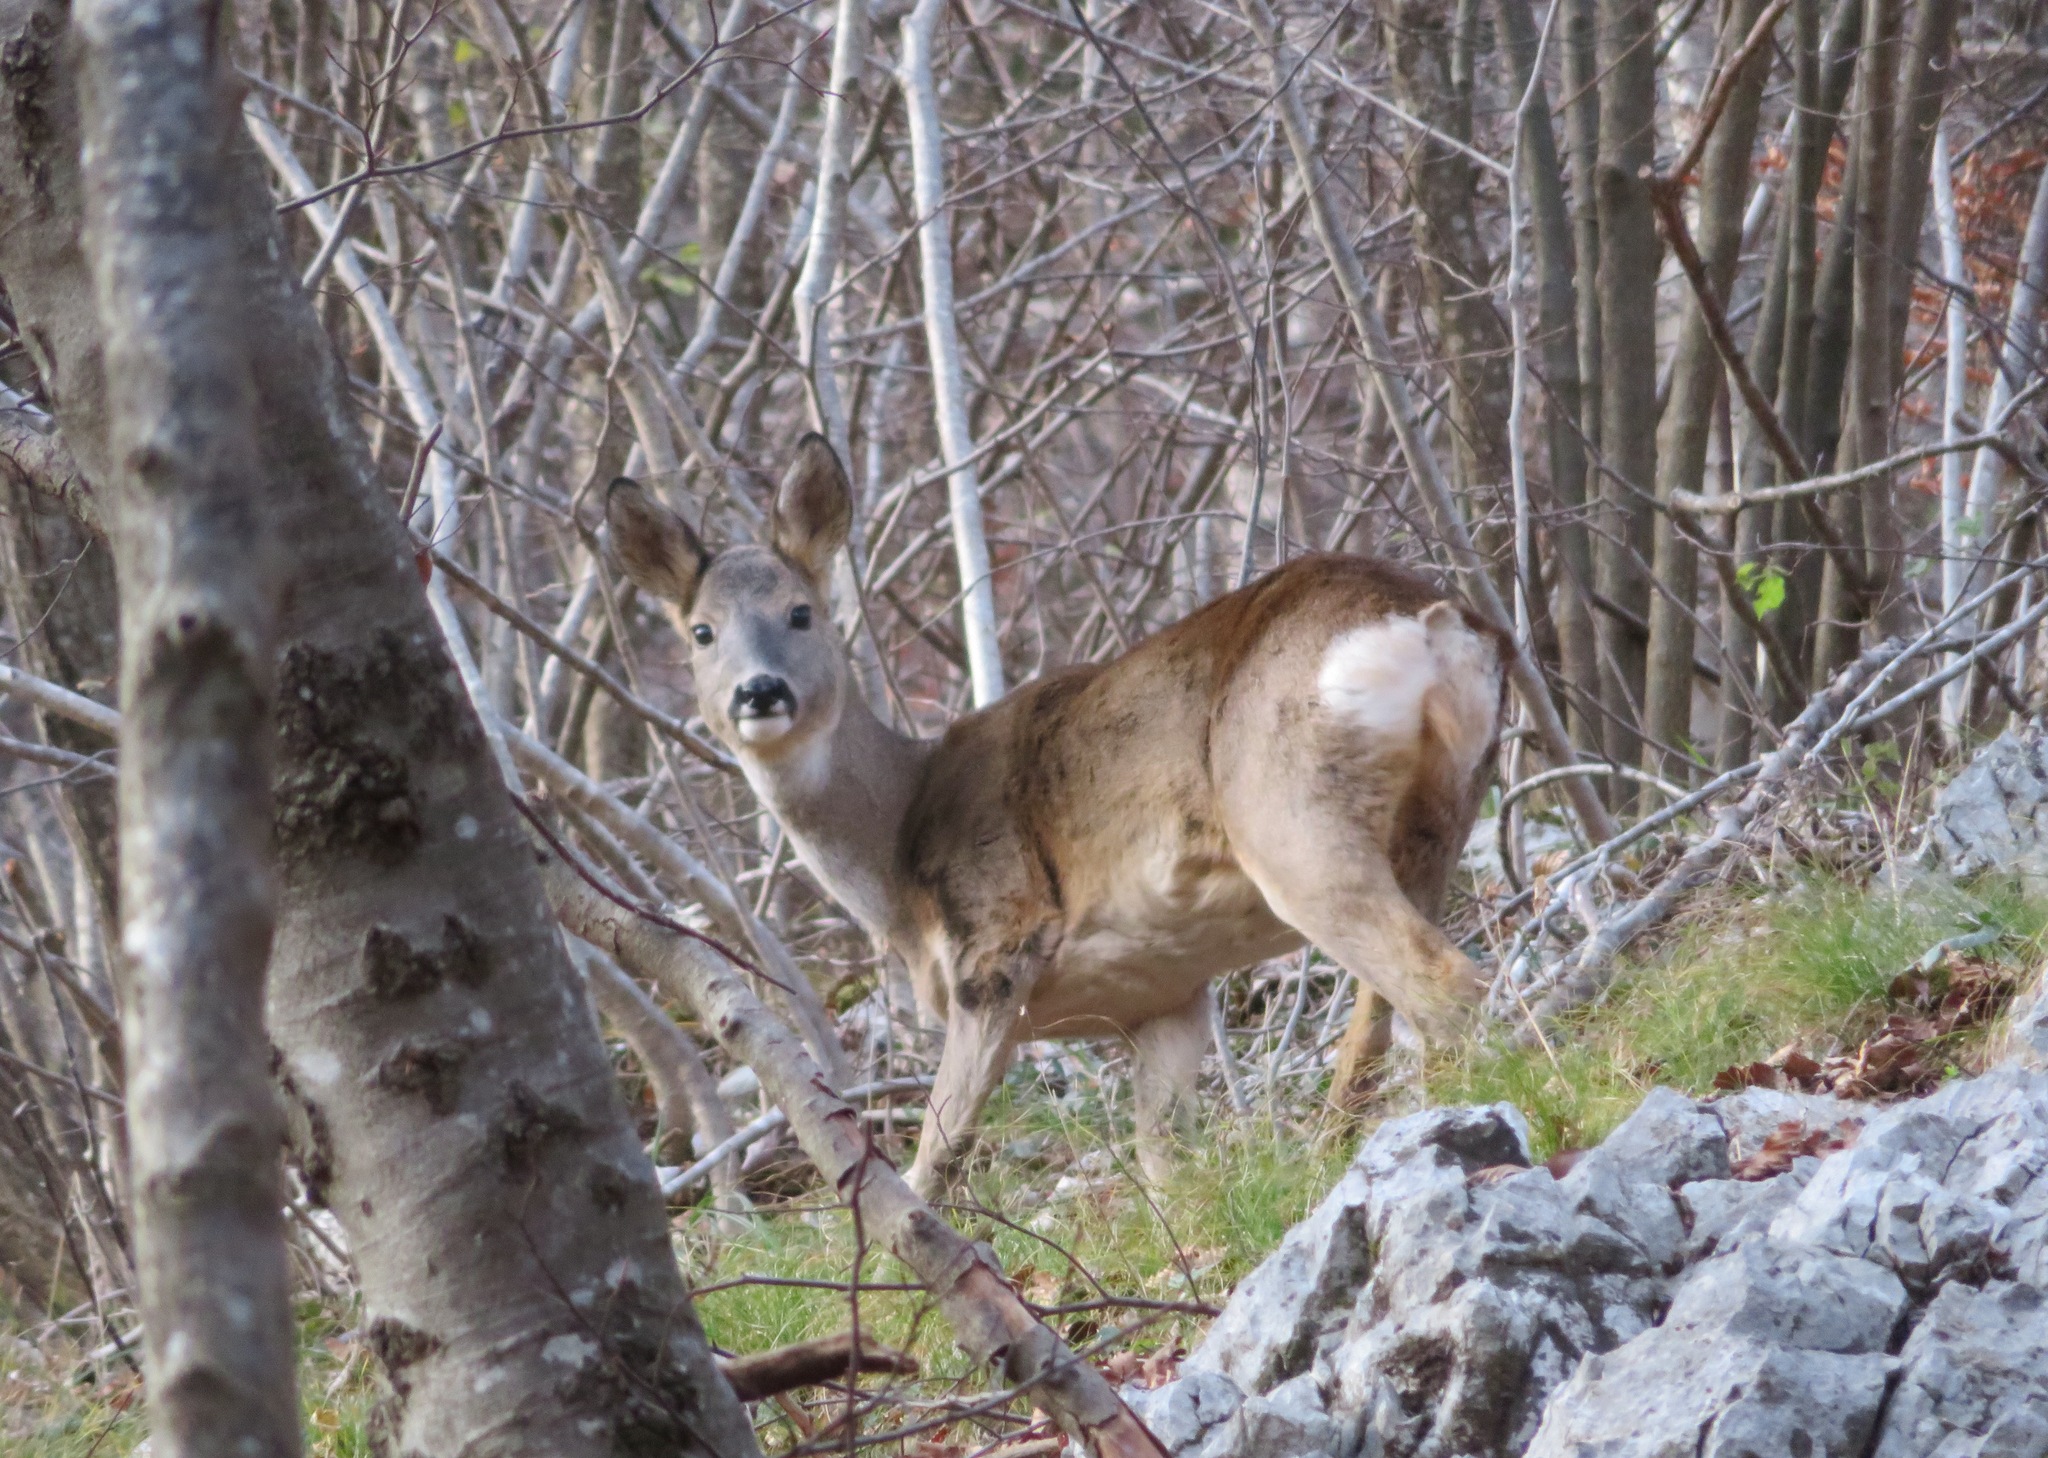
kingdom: Animalia
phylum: Chordata
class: Mammalia
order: Artiodactyla
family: Cervidae
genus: Capreolus
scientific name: Capreolus capreolus
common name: Western roe deer
